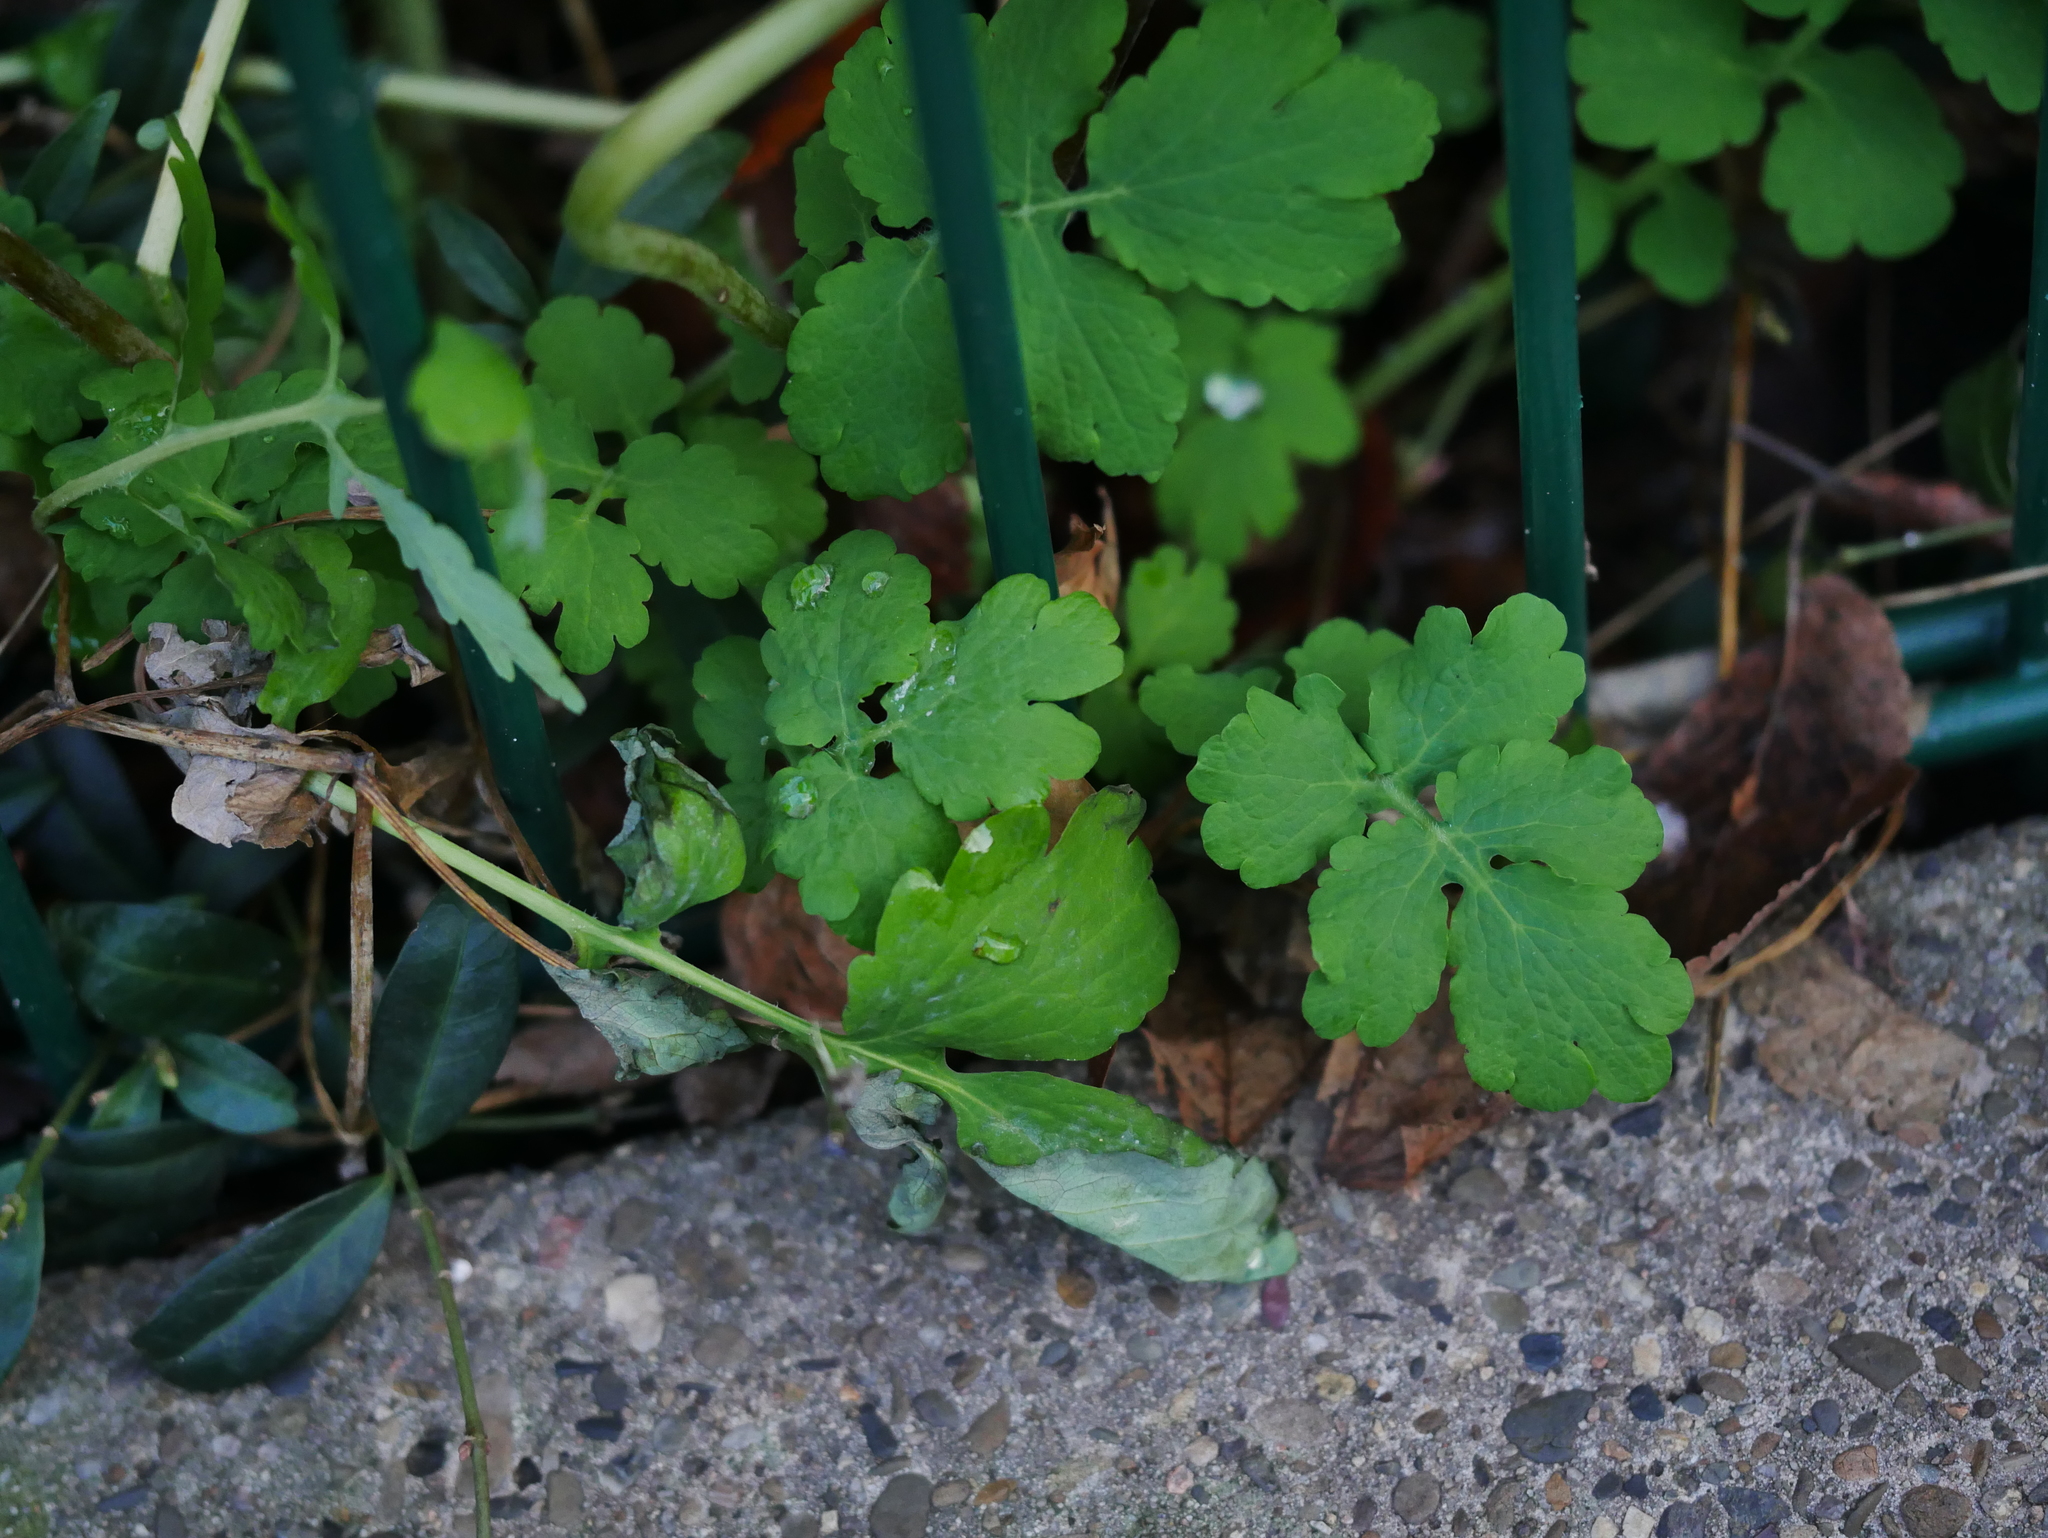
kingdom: Plantae
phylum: Tracheophyta
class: Magnoliopsida
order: Ranunculales
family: Papaveraceae
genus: Chelidonium
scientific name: Chelidonium majus
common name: Greater celandine
